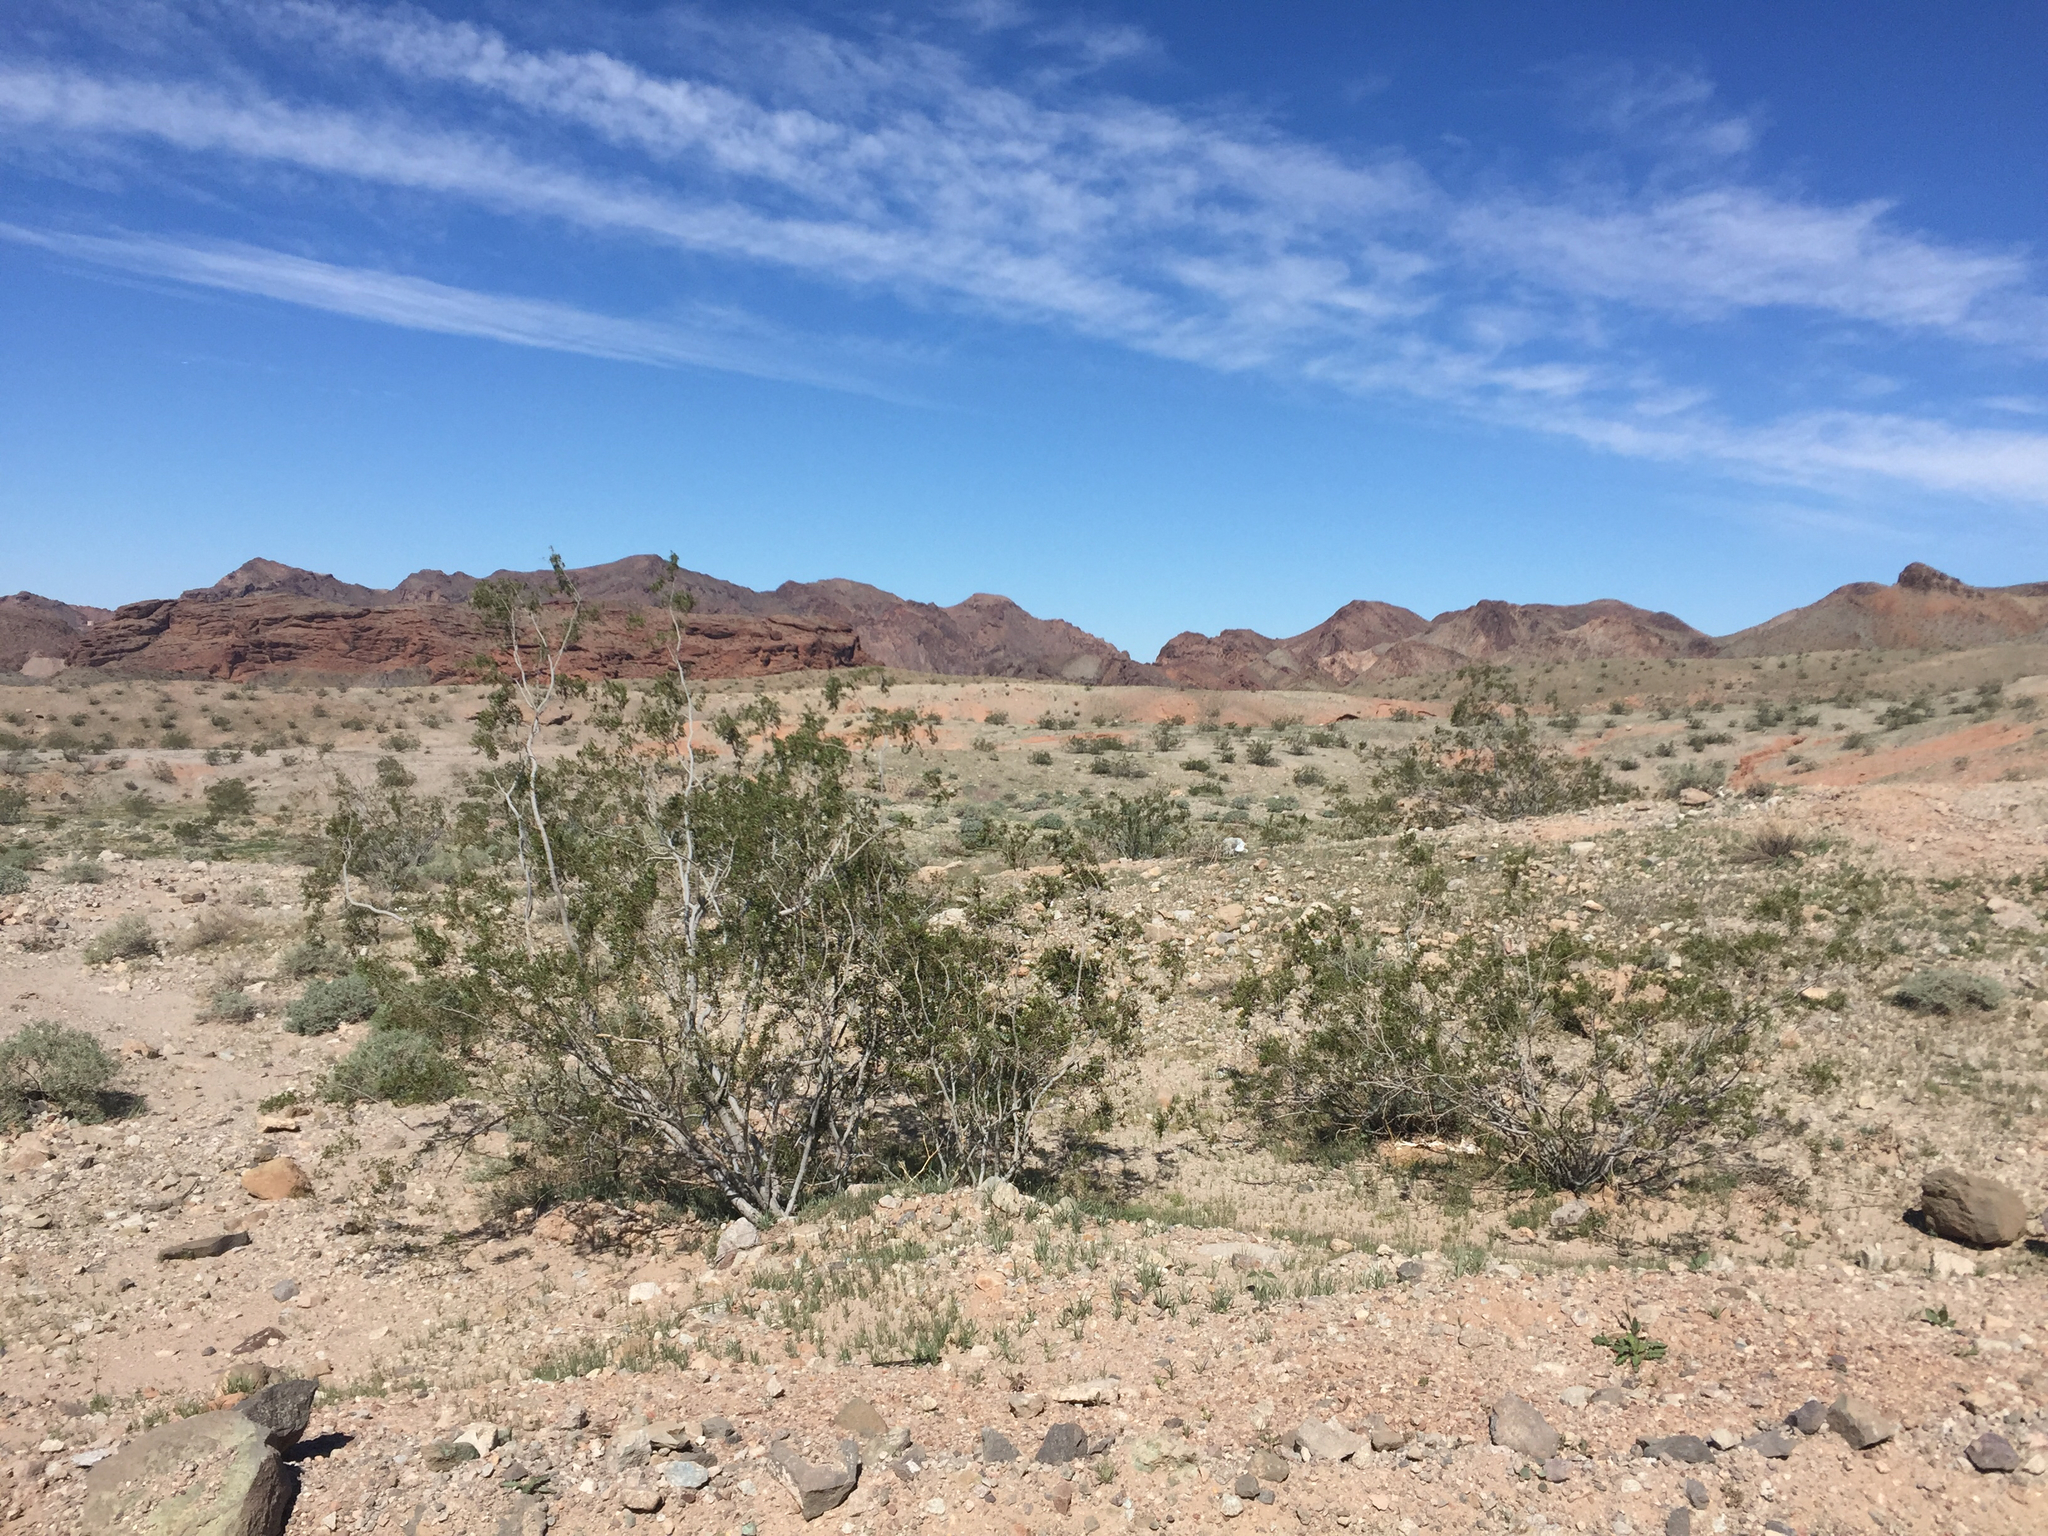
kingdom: Plantae
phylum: Tracheophyta
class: Magnoliopsida
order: Zygophyllales
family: Zygophyllaceae
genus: Larrea
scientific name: Larrea tridentata
